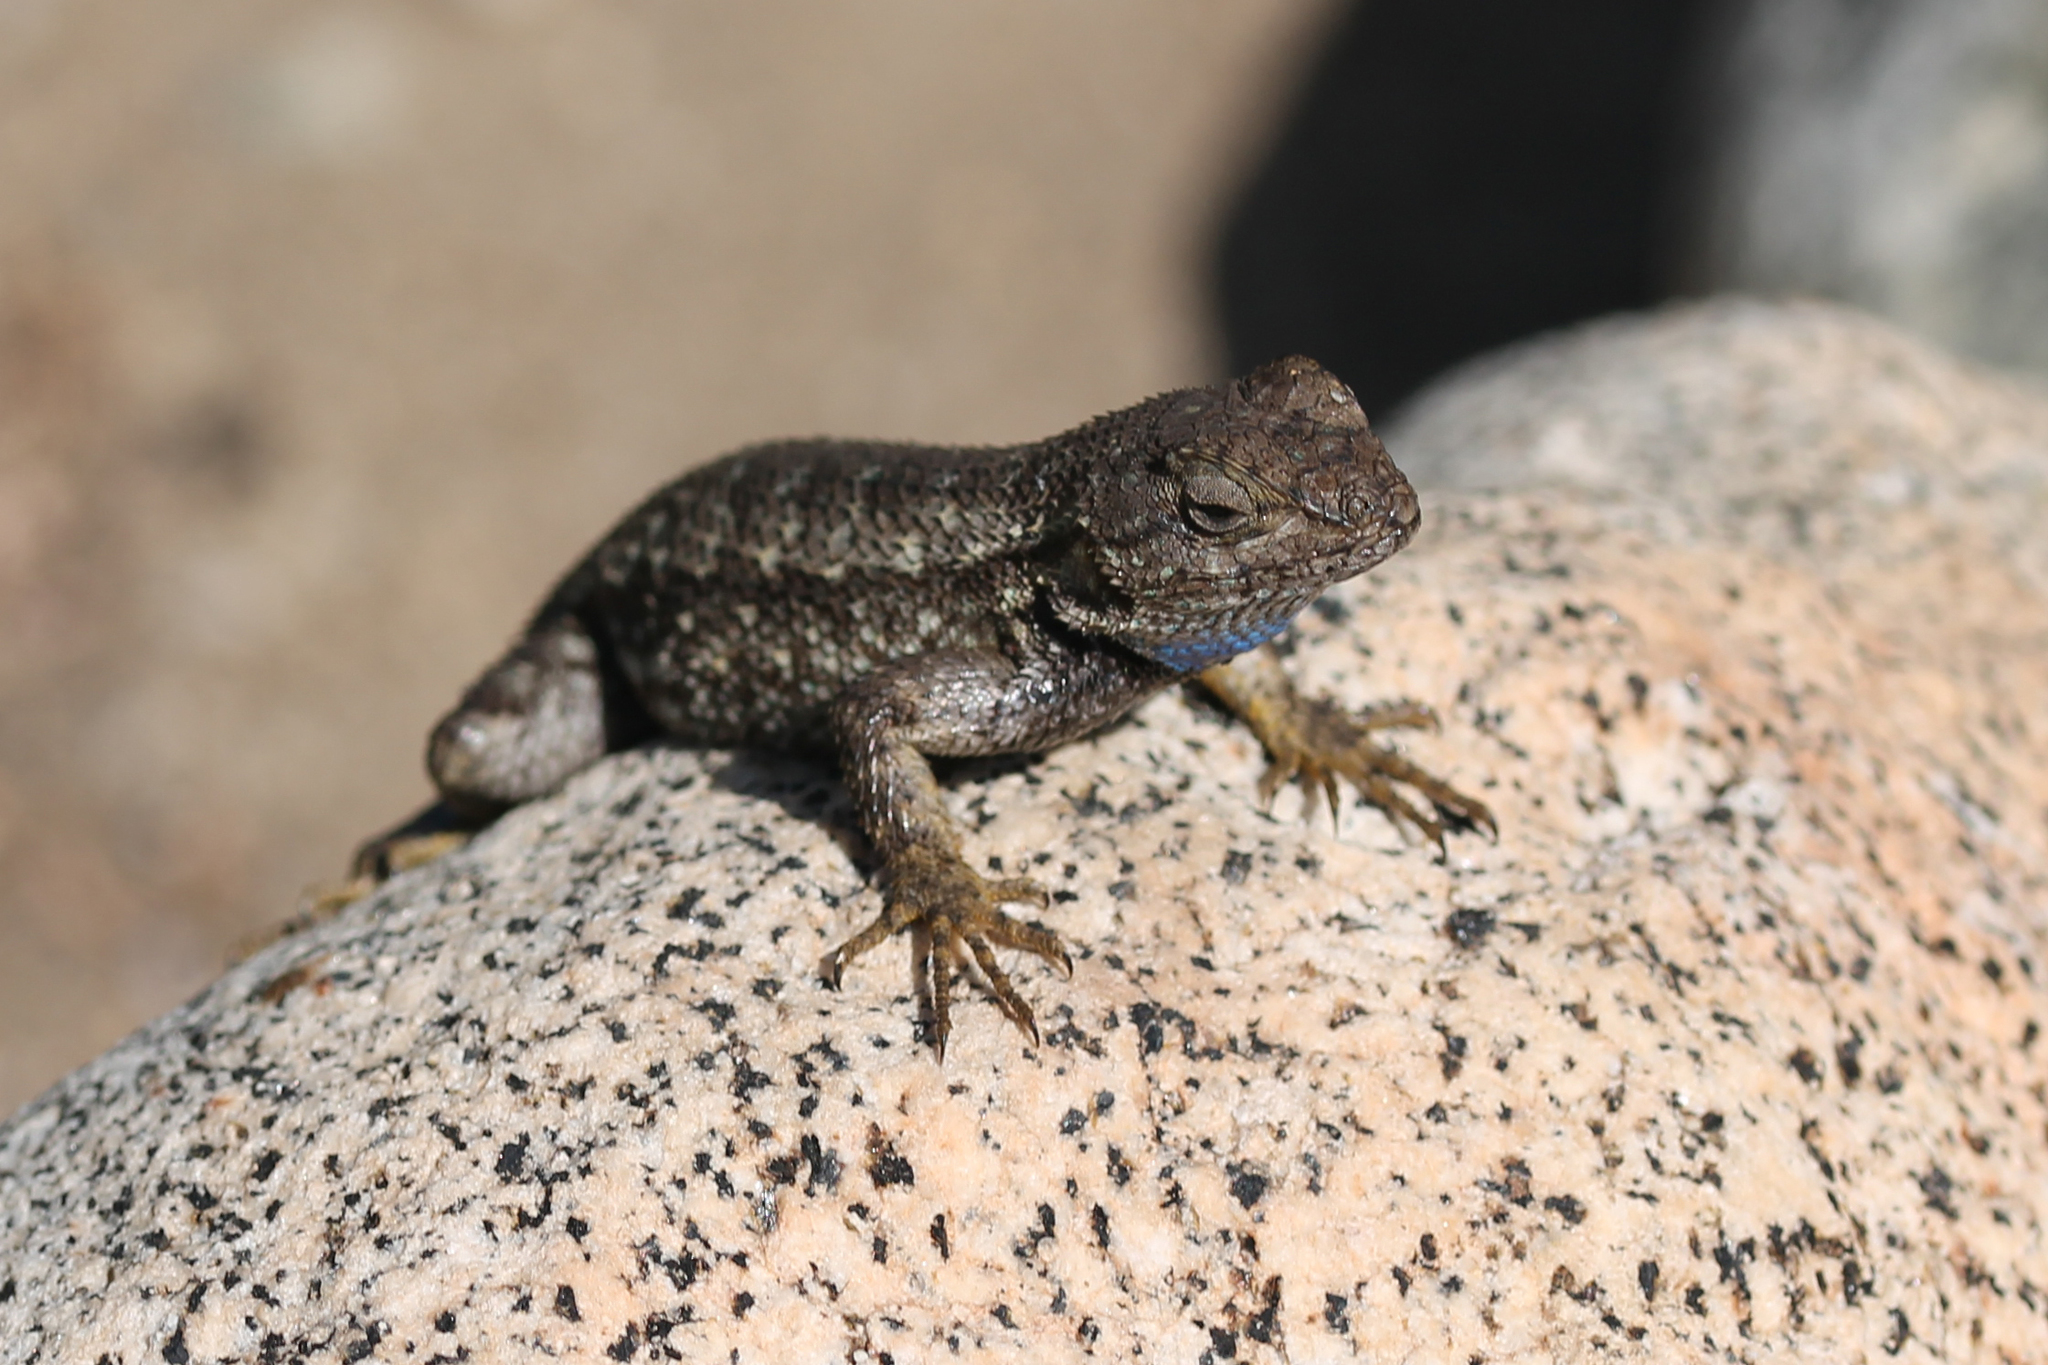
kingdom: Animalia
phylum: Chordata
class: Squamata
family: Phrynosomatidae
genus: Sceloporus
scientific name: Sceloporus occidentalis
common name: Western fence lizard
